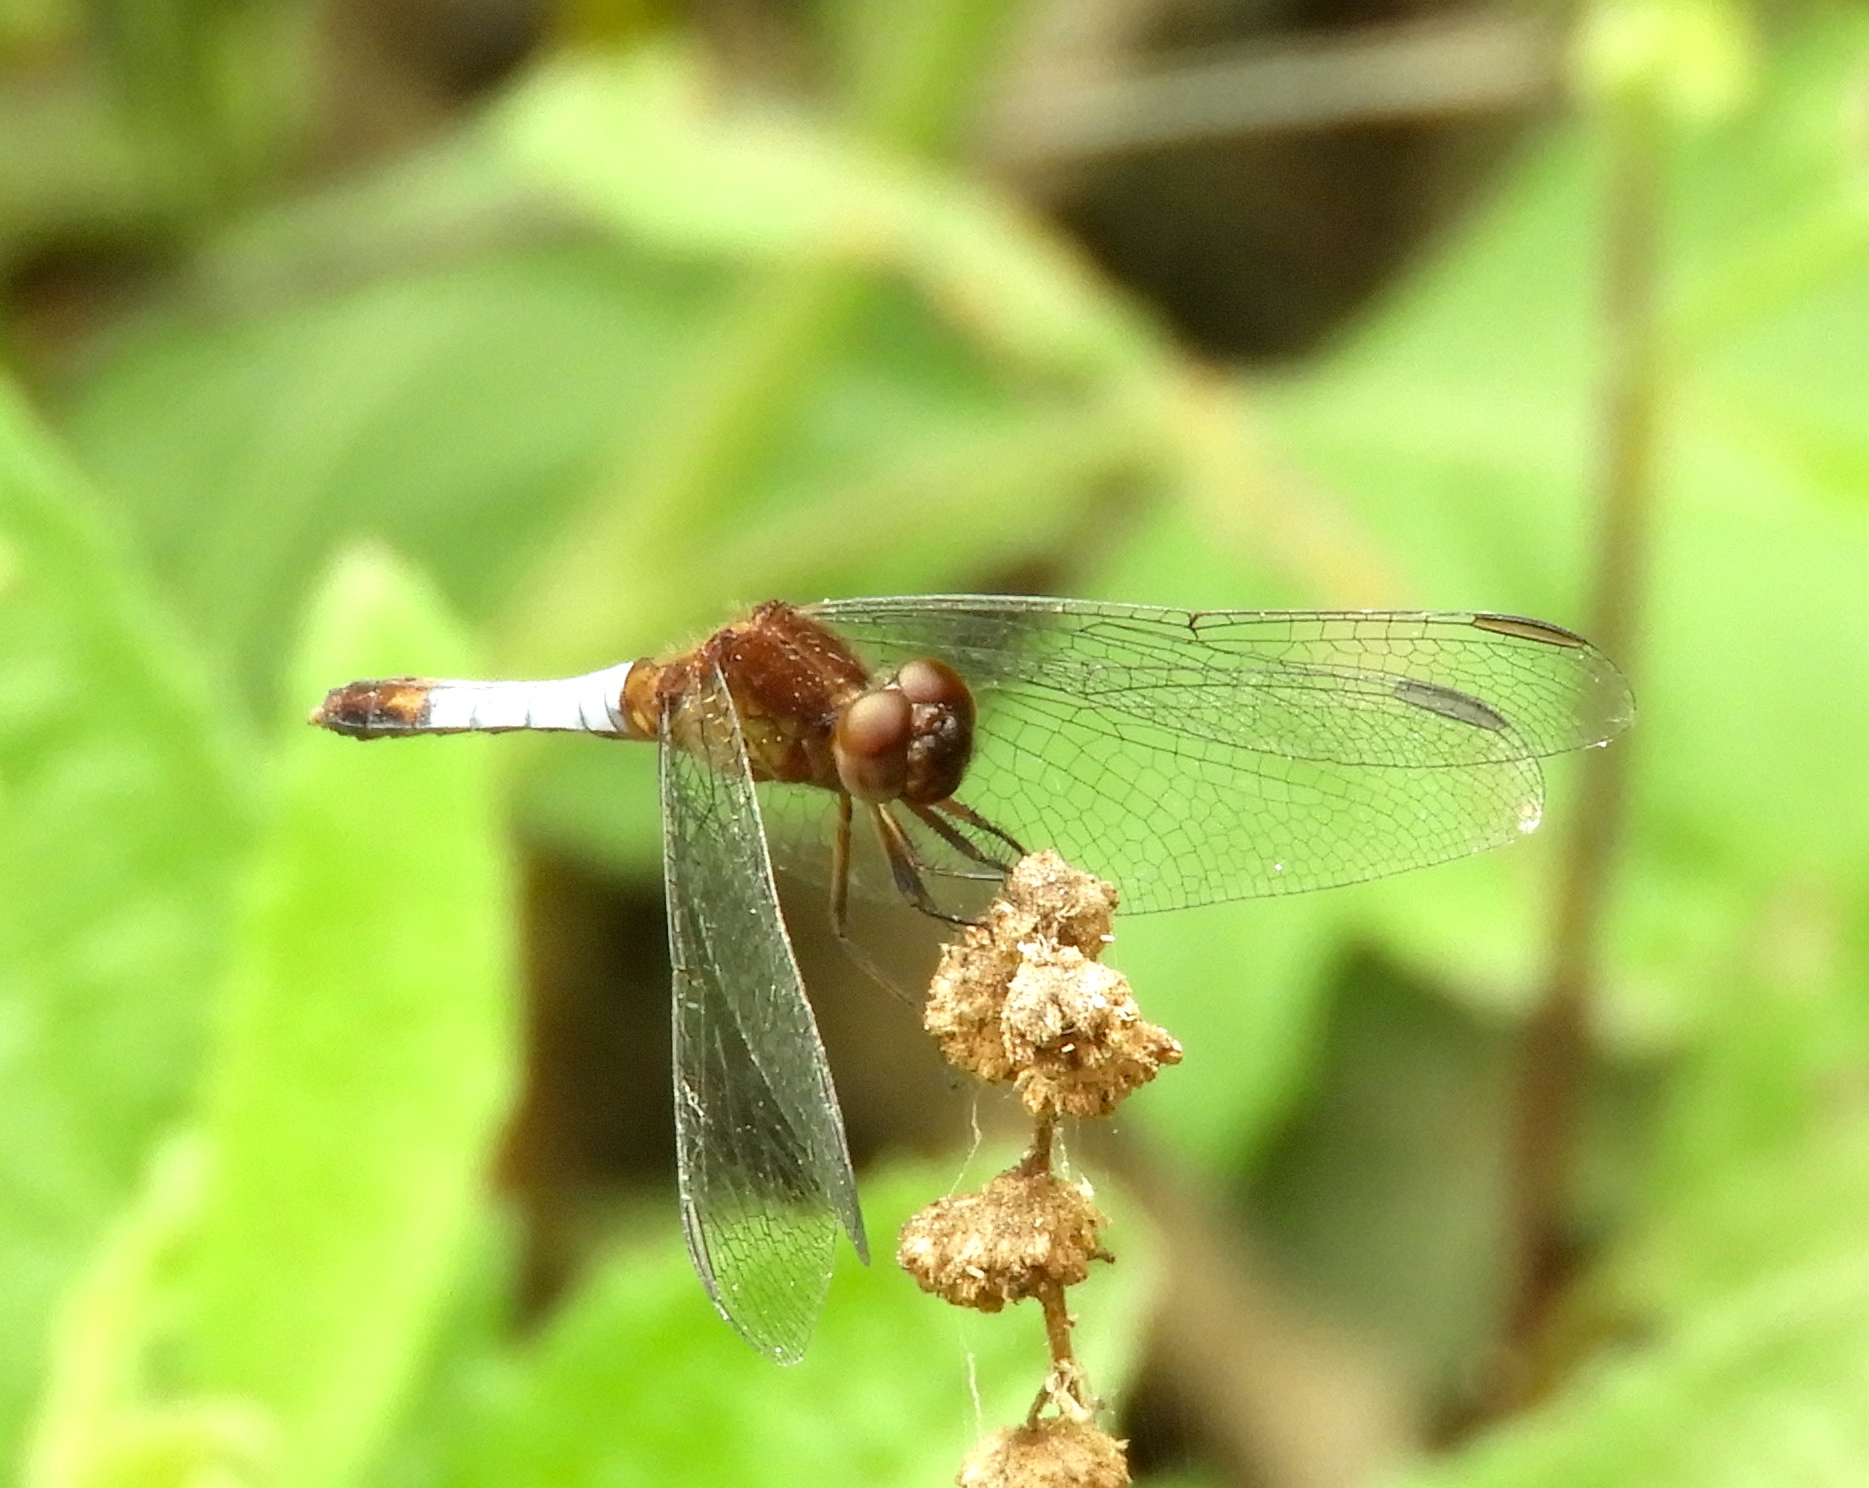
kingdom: Animalia
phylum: Arthropoda
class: Insecta
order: Odonata
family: Libellulidae
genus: Erythrodiplax
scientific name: Erythrodiplax basifusca
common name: Plateau dragonlet
